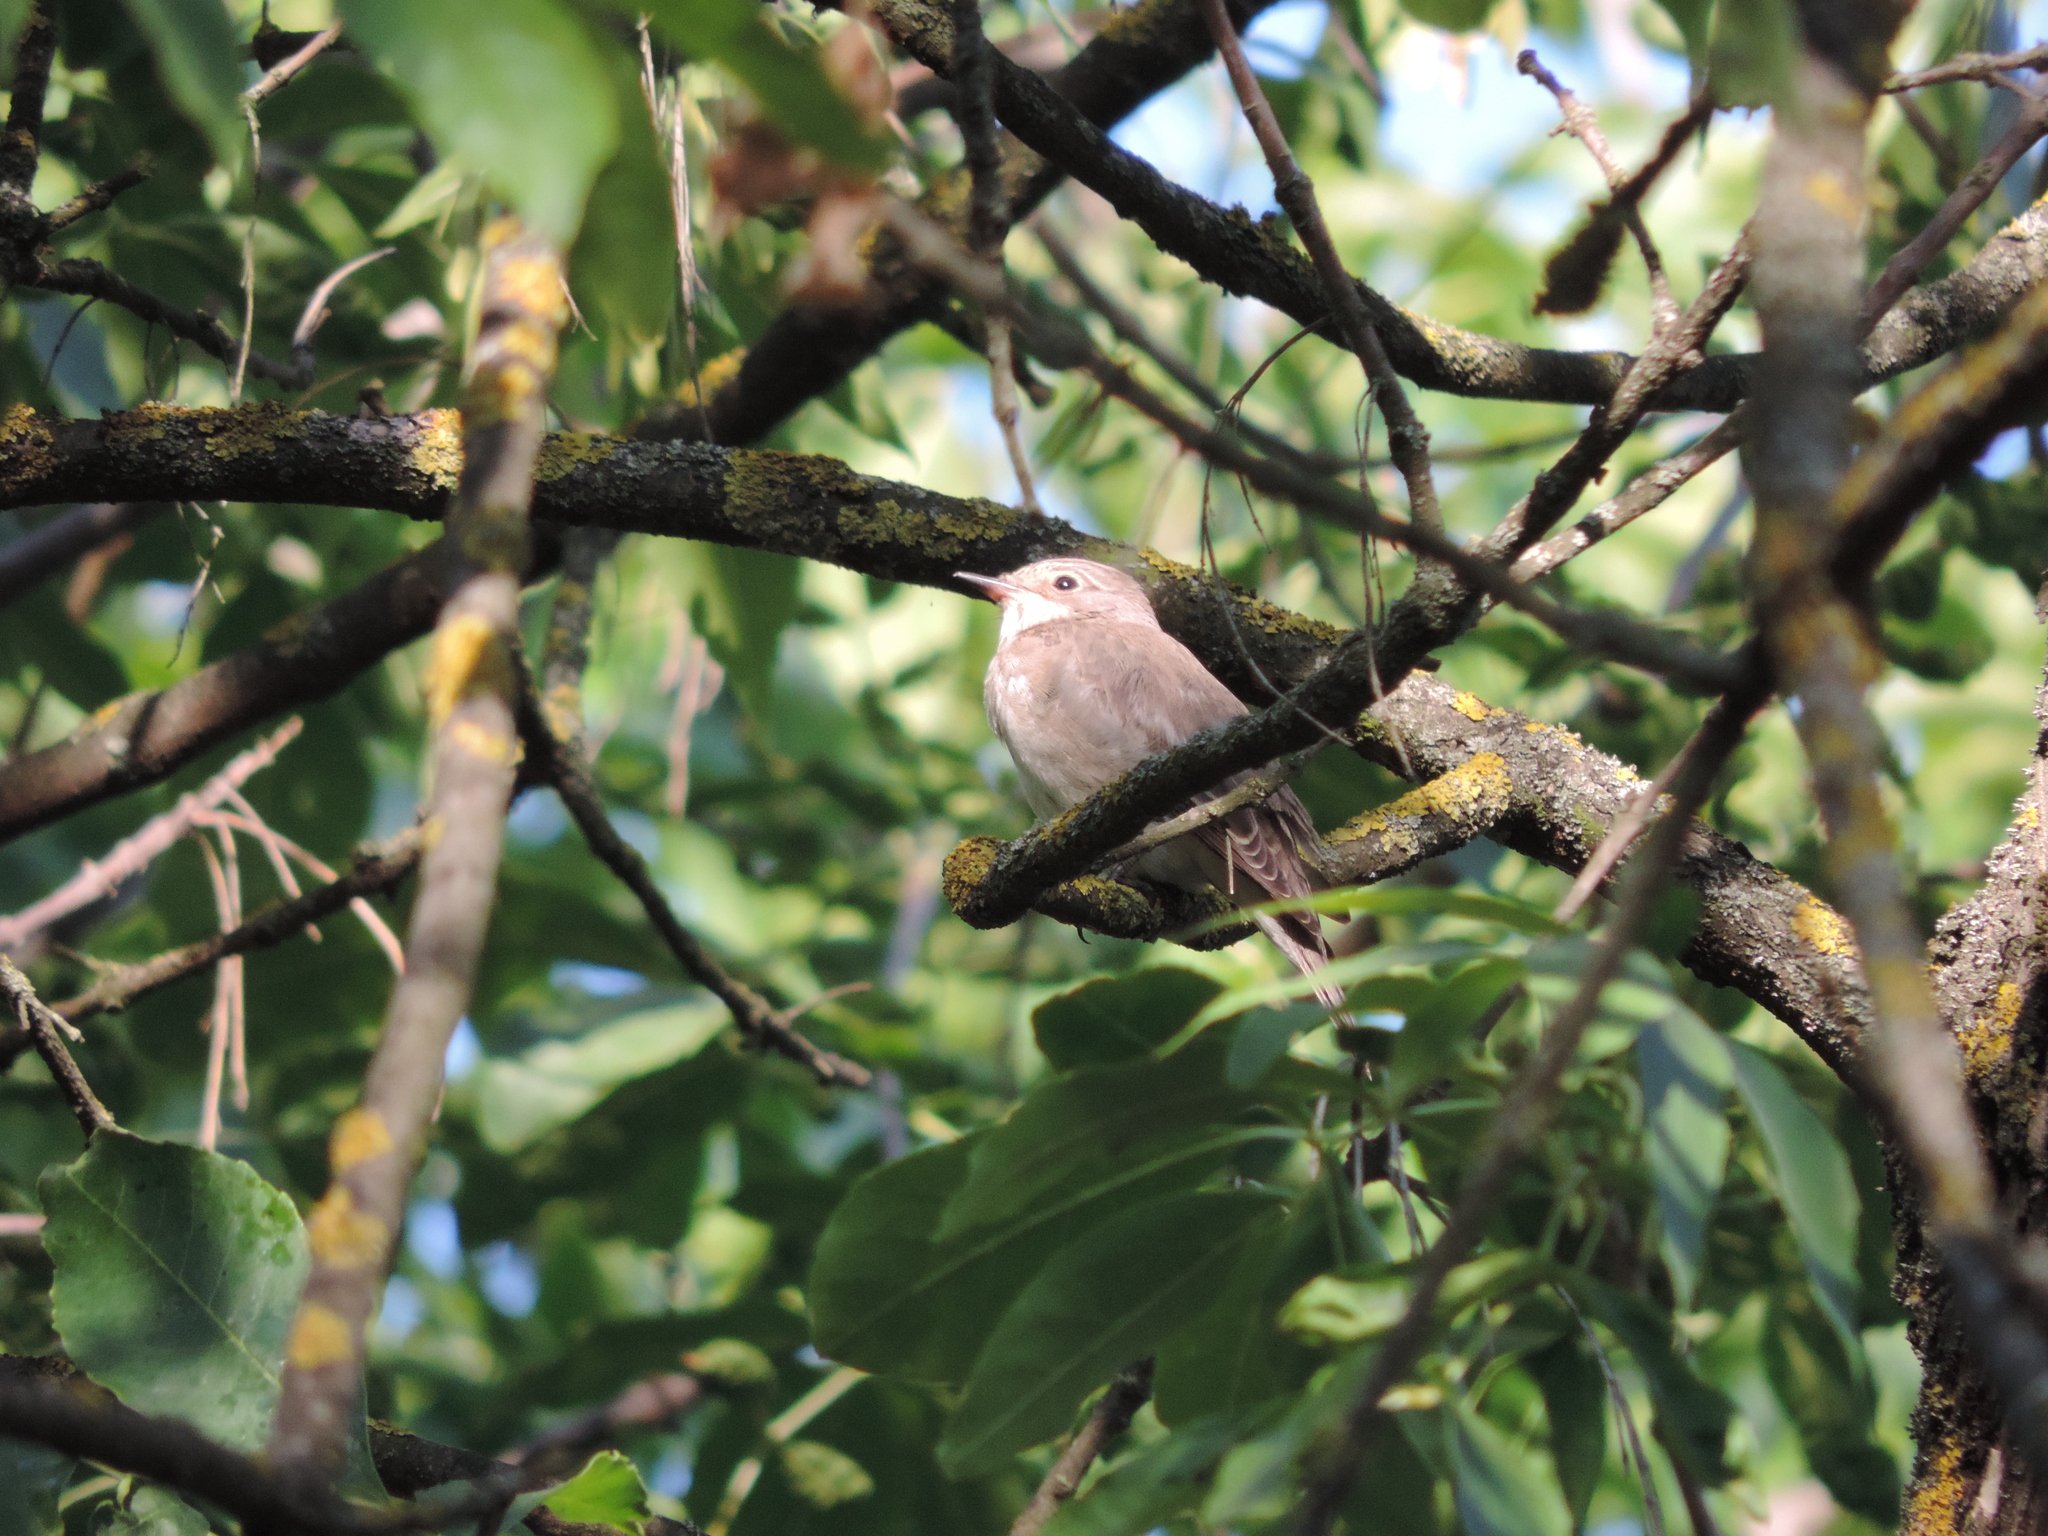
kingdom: Animalia
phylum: Chordata
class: Aves
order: Passeriformes
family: Muscicapidae
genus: Muscicapa
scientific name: Muscicapa striata
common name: Spotted flycatcher
